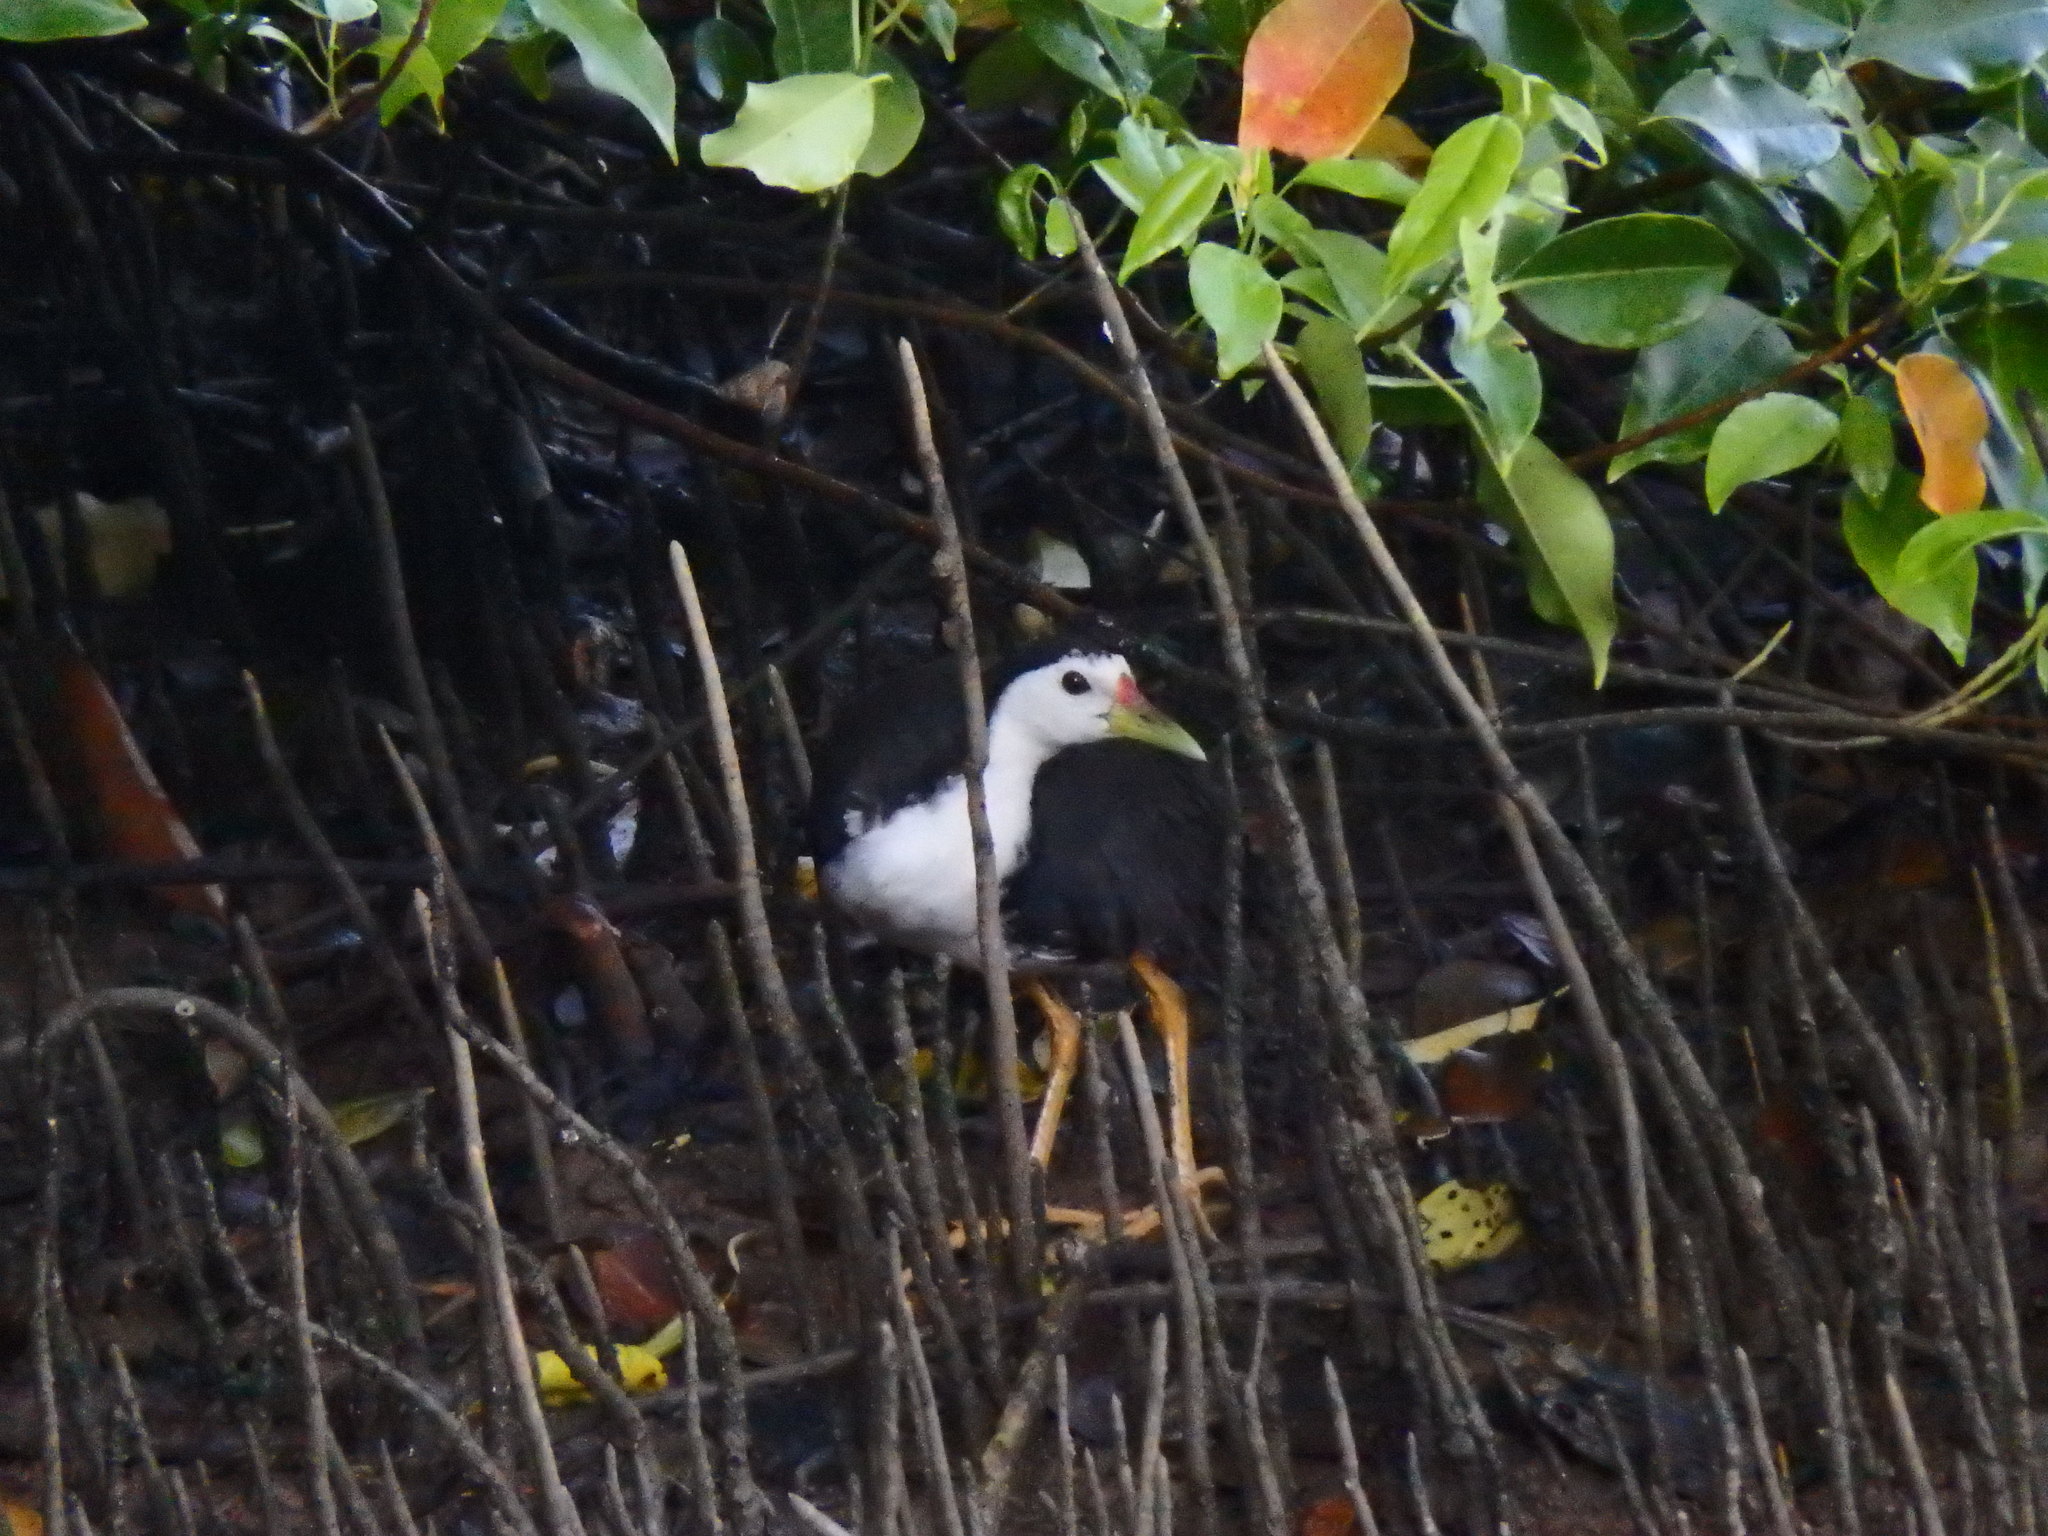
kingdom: Animalia
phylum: Chordata
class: Aves
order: Gruiformes
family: Rallidae
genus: Amaurornis
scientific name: Amaurornis phoenicurus
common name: White-breasted waterhen
